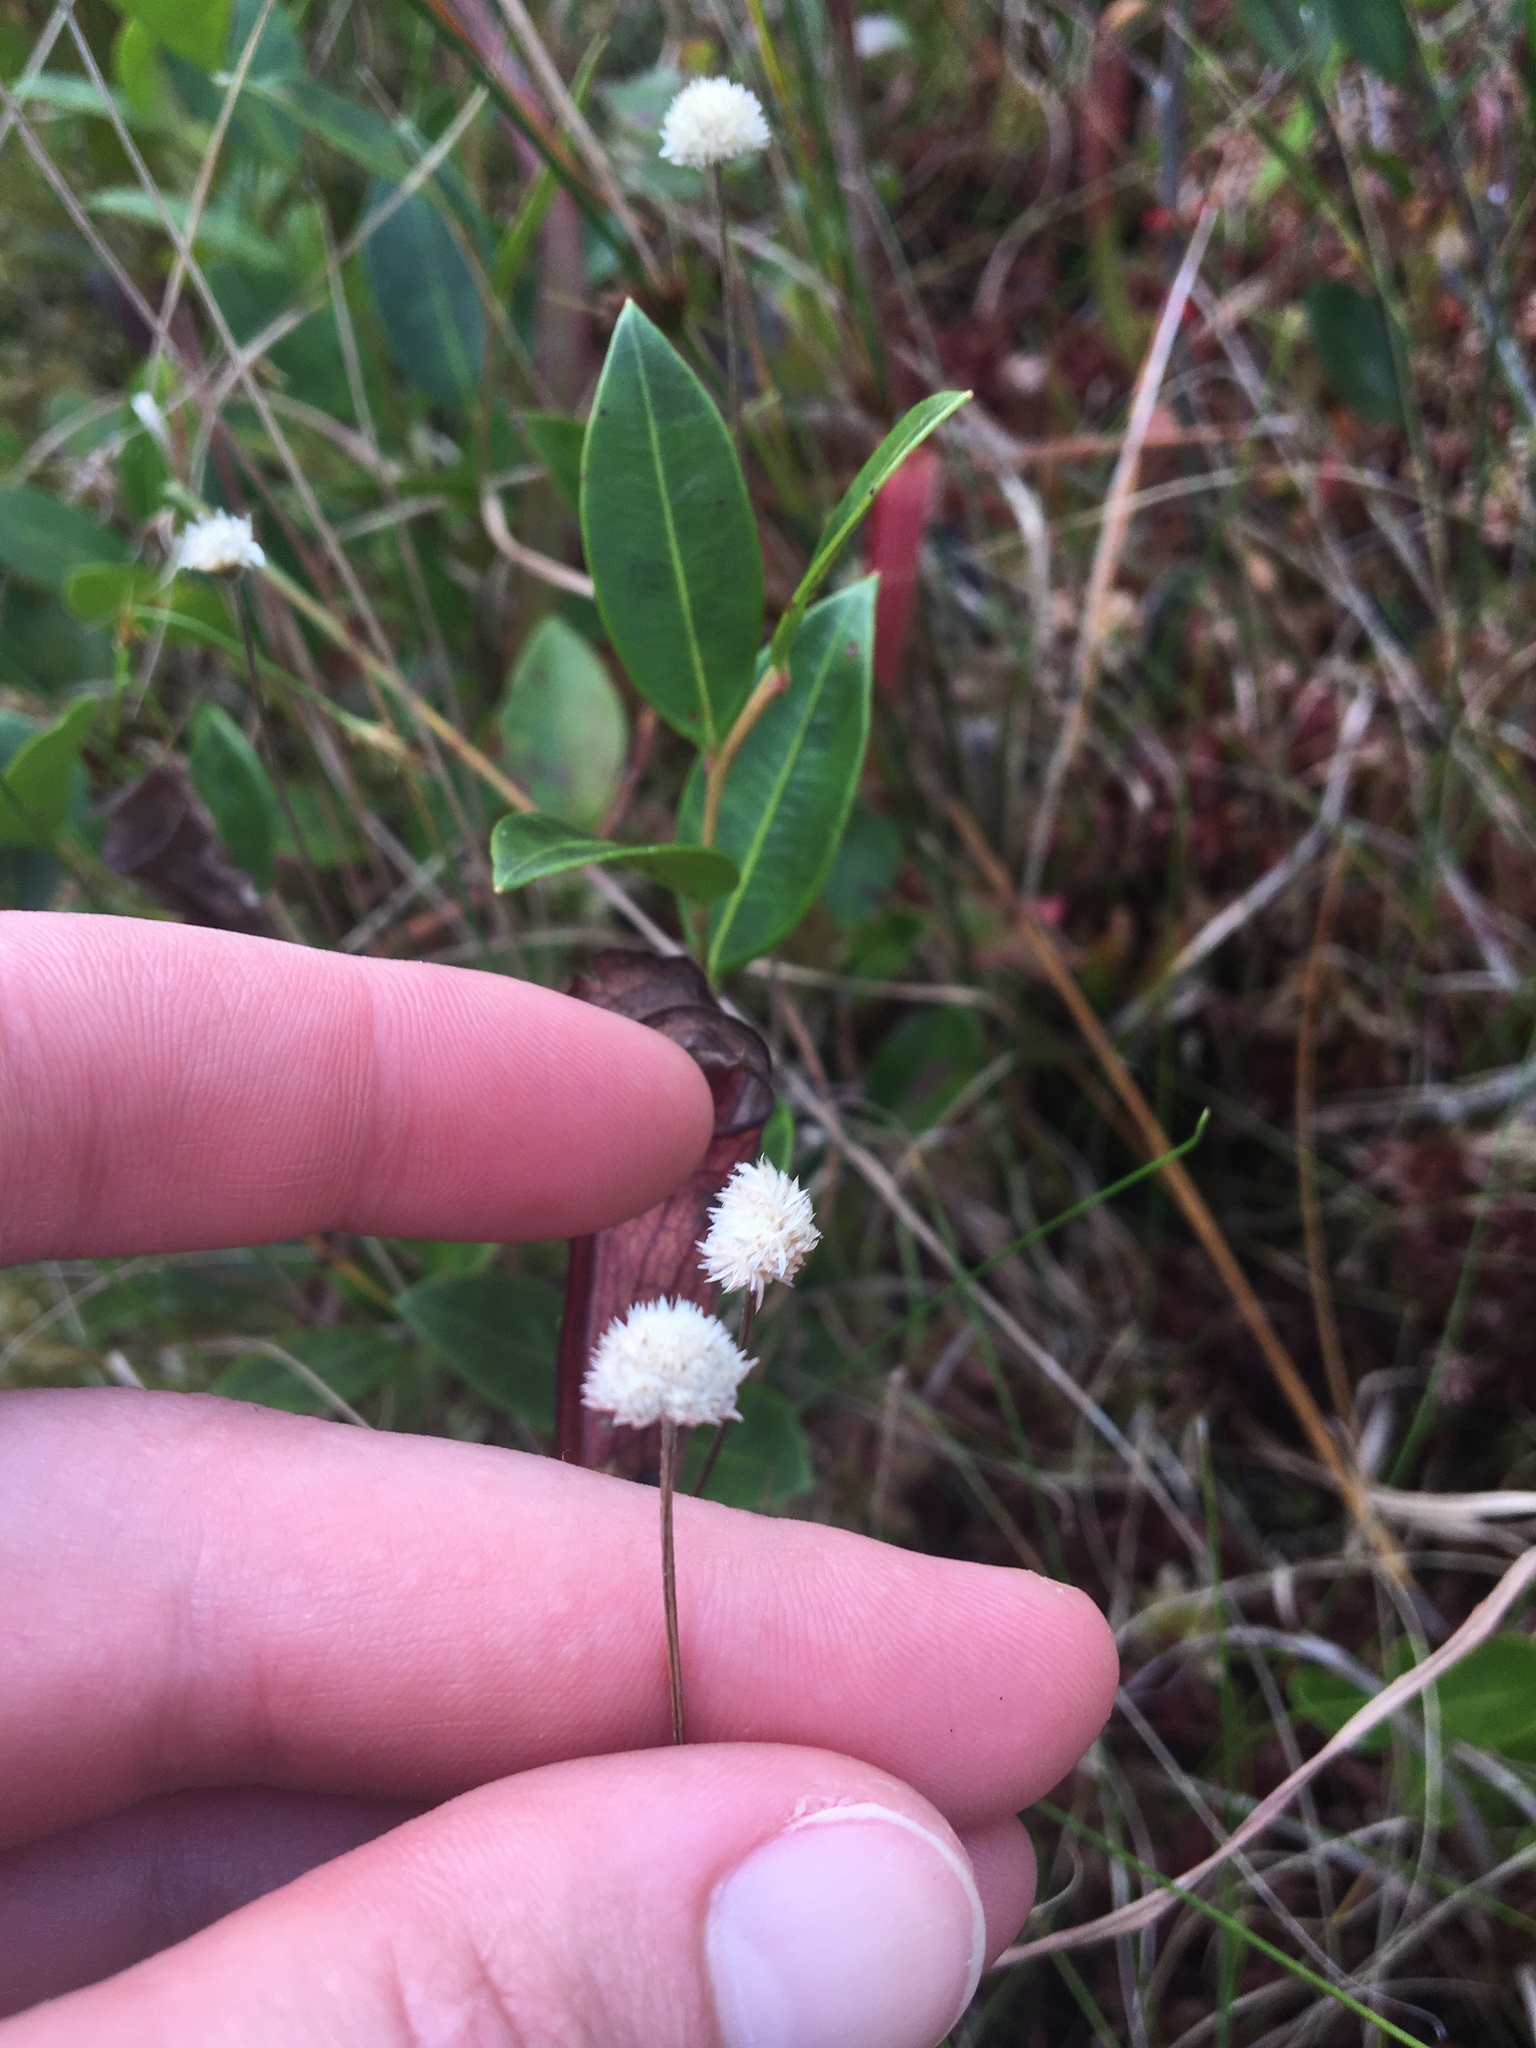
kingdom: Plantae
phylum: Tracheophyta
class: Liliopsida
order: Poales
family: Eriocaulaceae
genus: Syngonanthus
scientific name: Syngonanthus flavidulus
